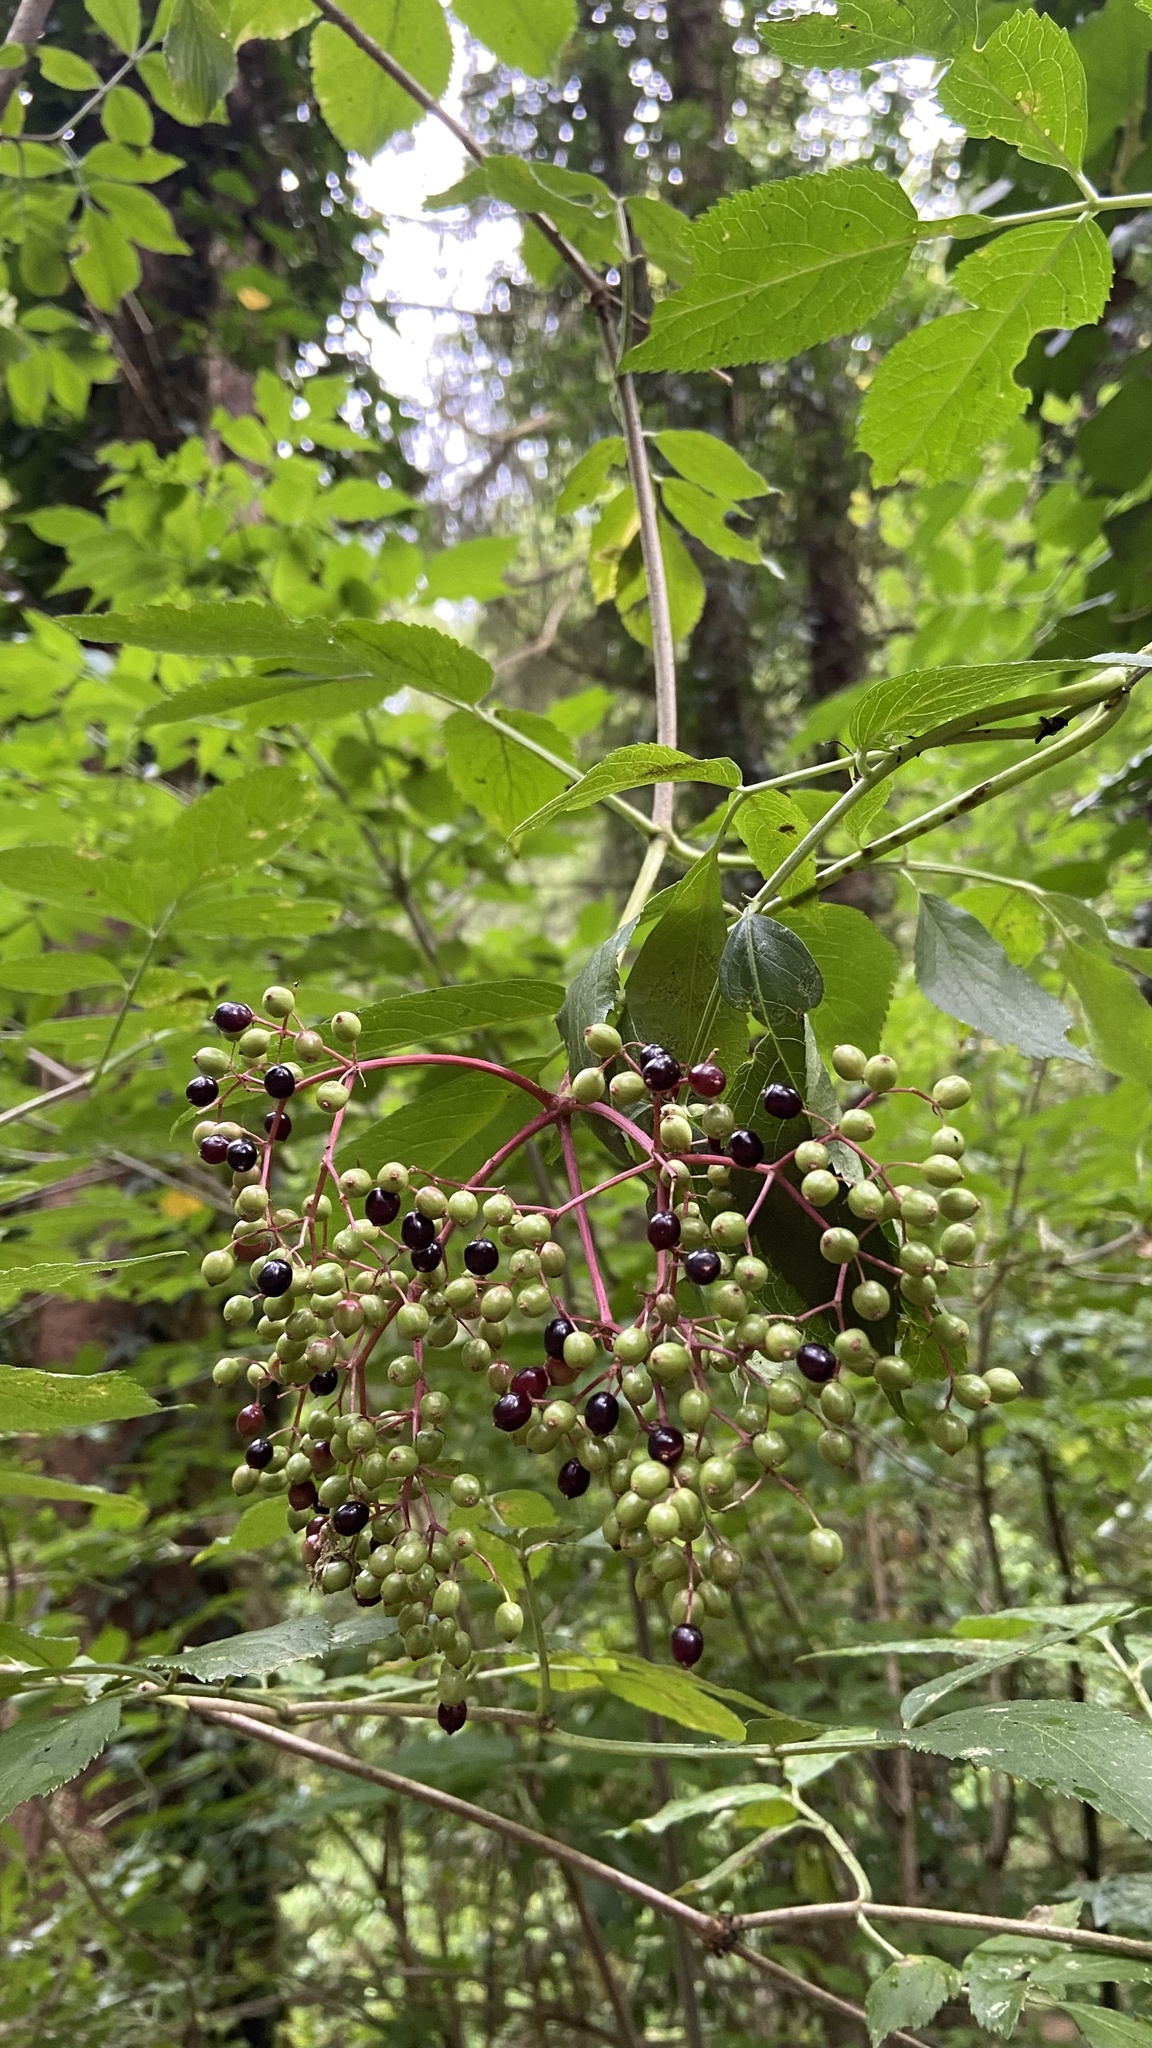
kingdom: Plantae
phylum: Tracheophyta
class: Magnoliopsida
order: Dipsacales
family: Viburnaceae
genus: Sambucus
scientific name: Sambucus nigra
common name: Elder
